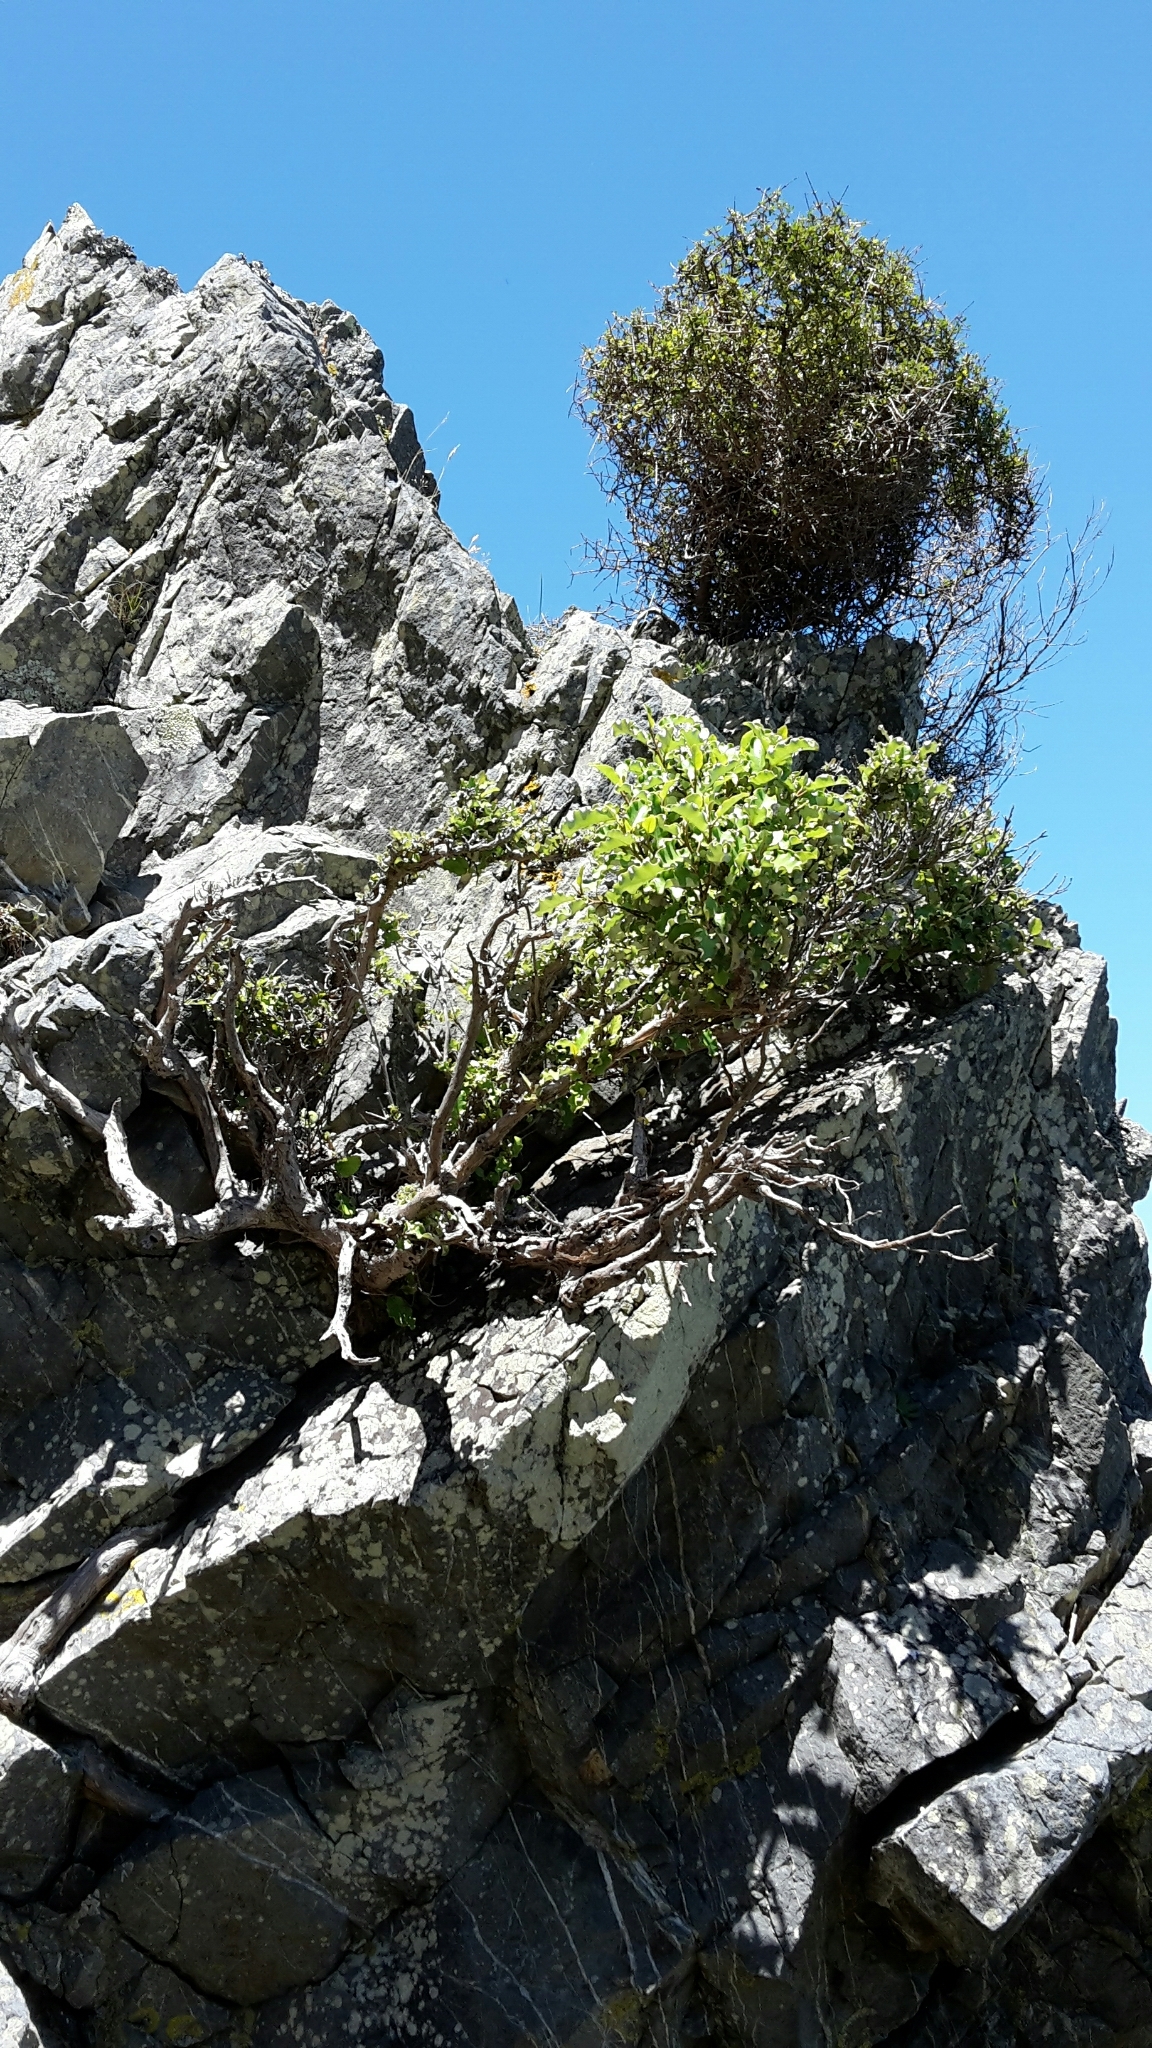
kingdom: Plantae
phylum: Tracheophyta
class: Magnoliopsida
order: Asterales
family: Asteraceae
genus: Olearia
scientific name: Olearia paniculata
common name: Akiraho
